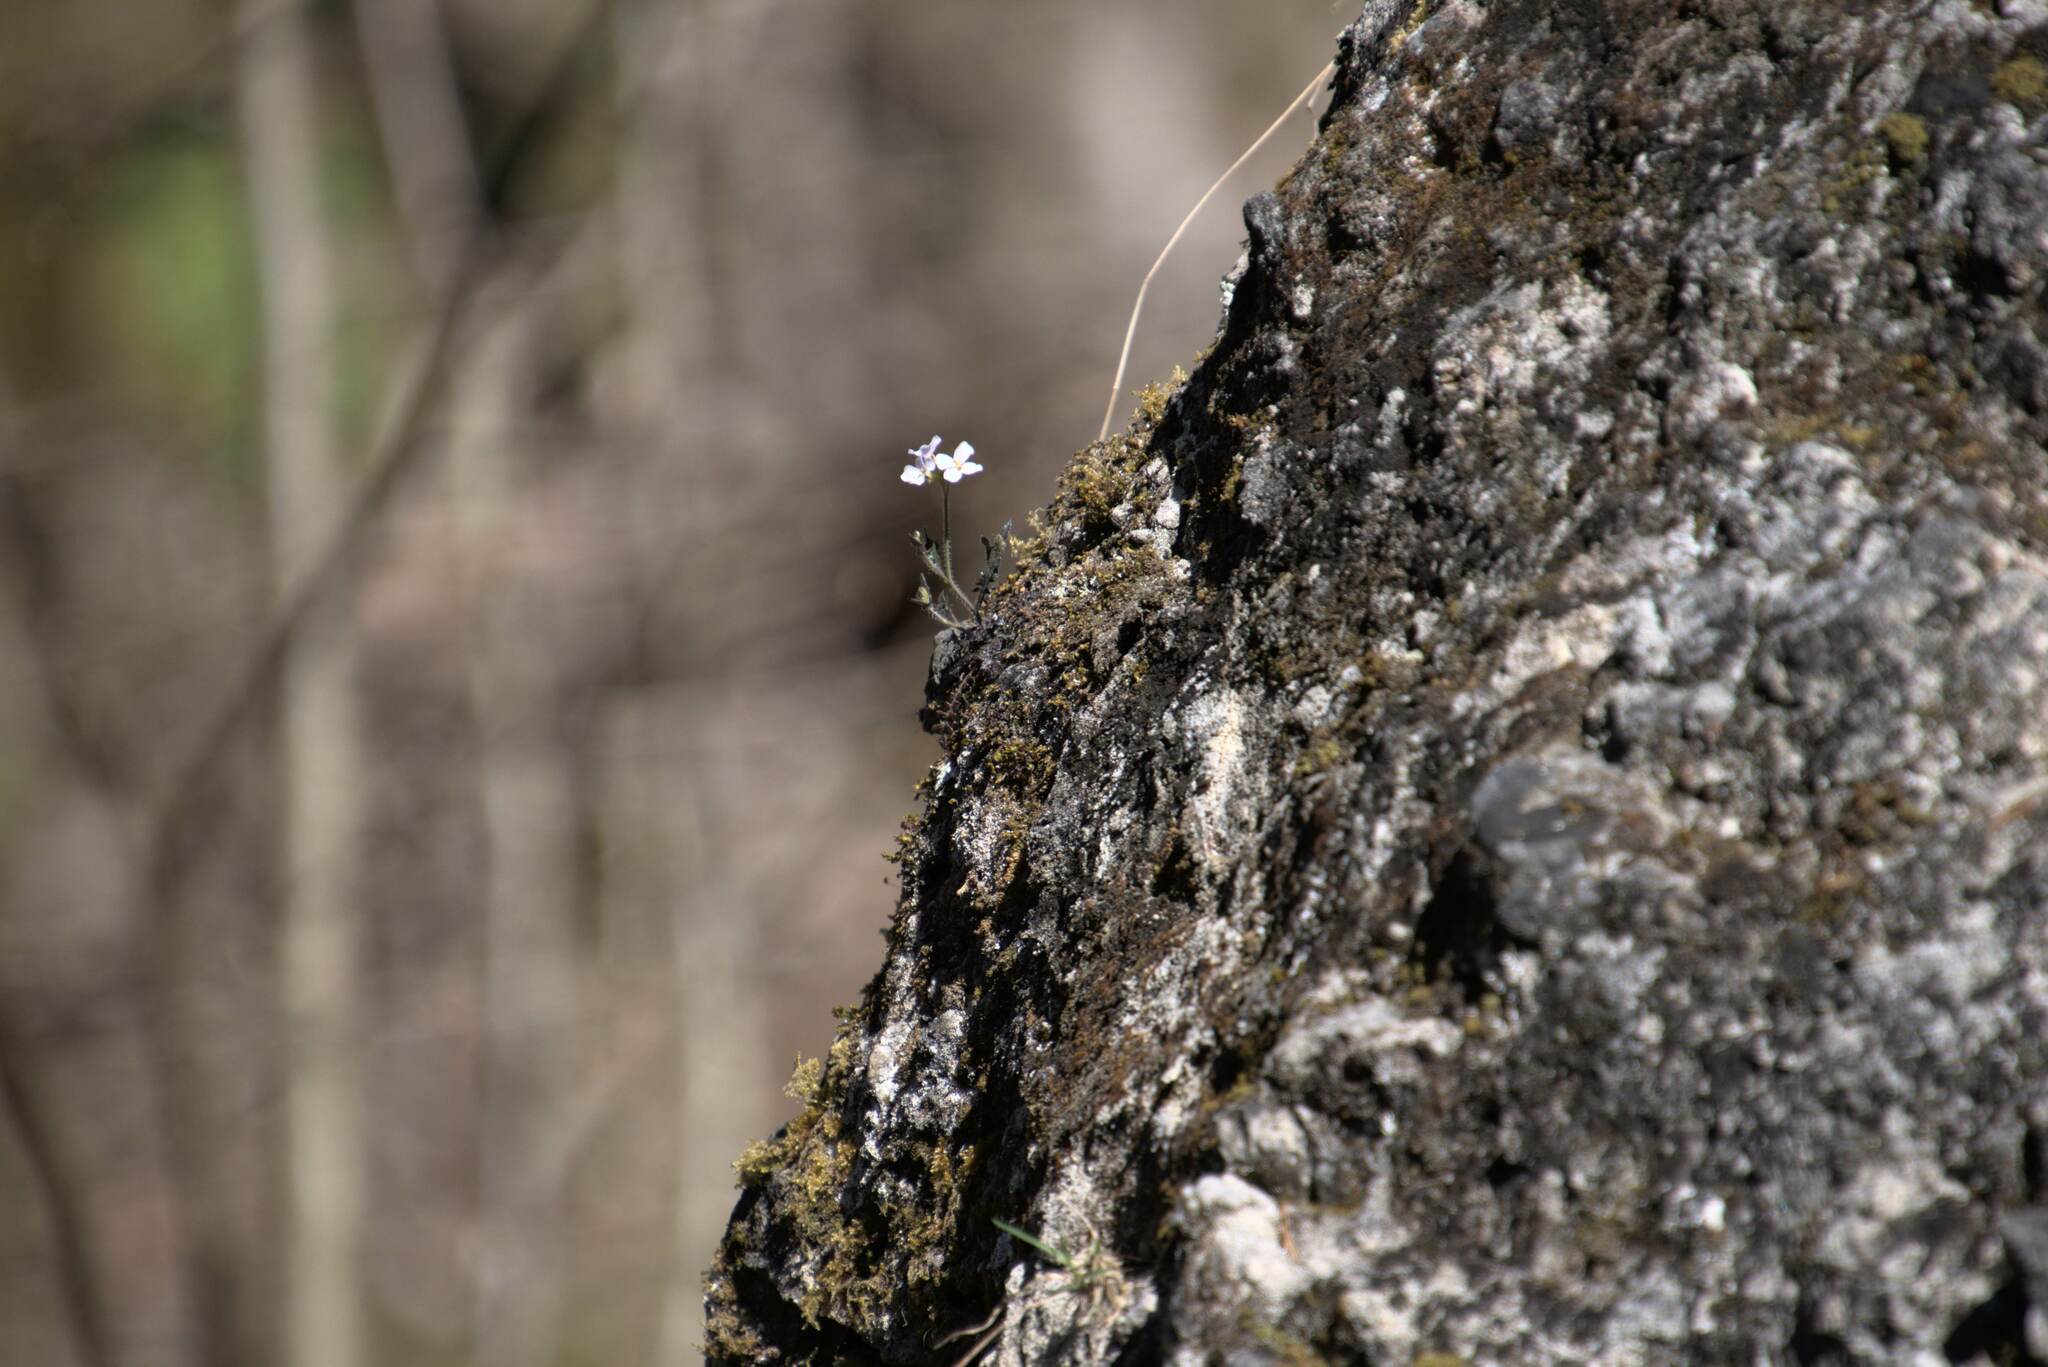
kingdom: Plantae
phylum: Tracheophyta
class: Magnoliopsida
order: Brassicales
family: Brassicaceae
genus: Arabidopsis
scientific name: Arabidopsis arenosa
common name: Sand rock-cress
